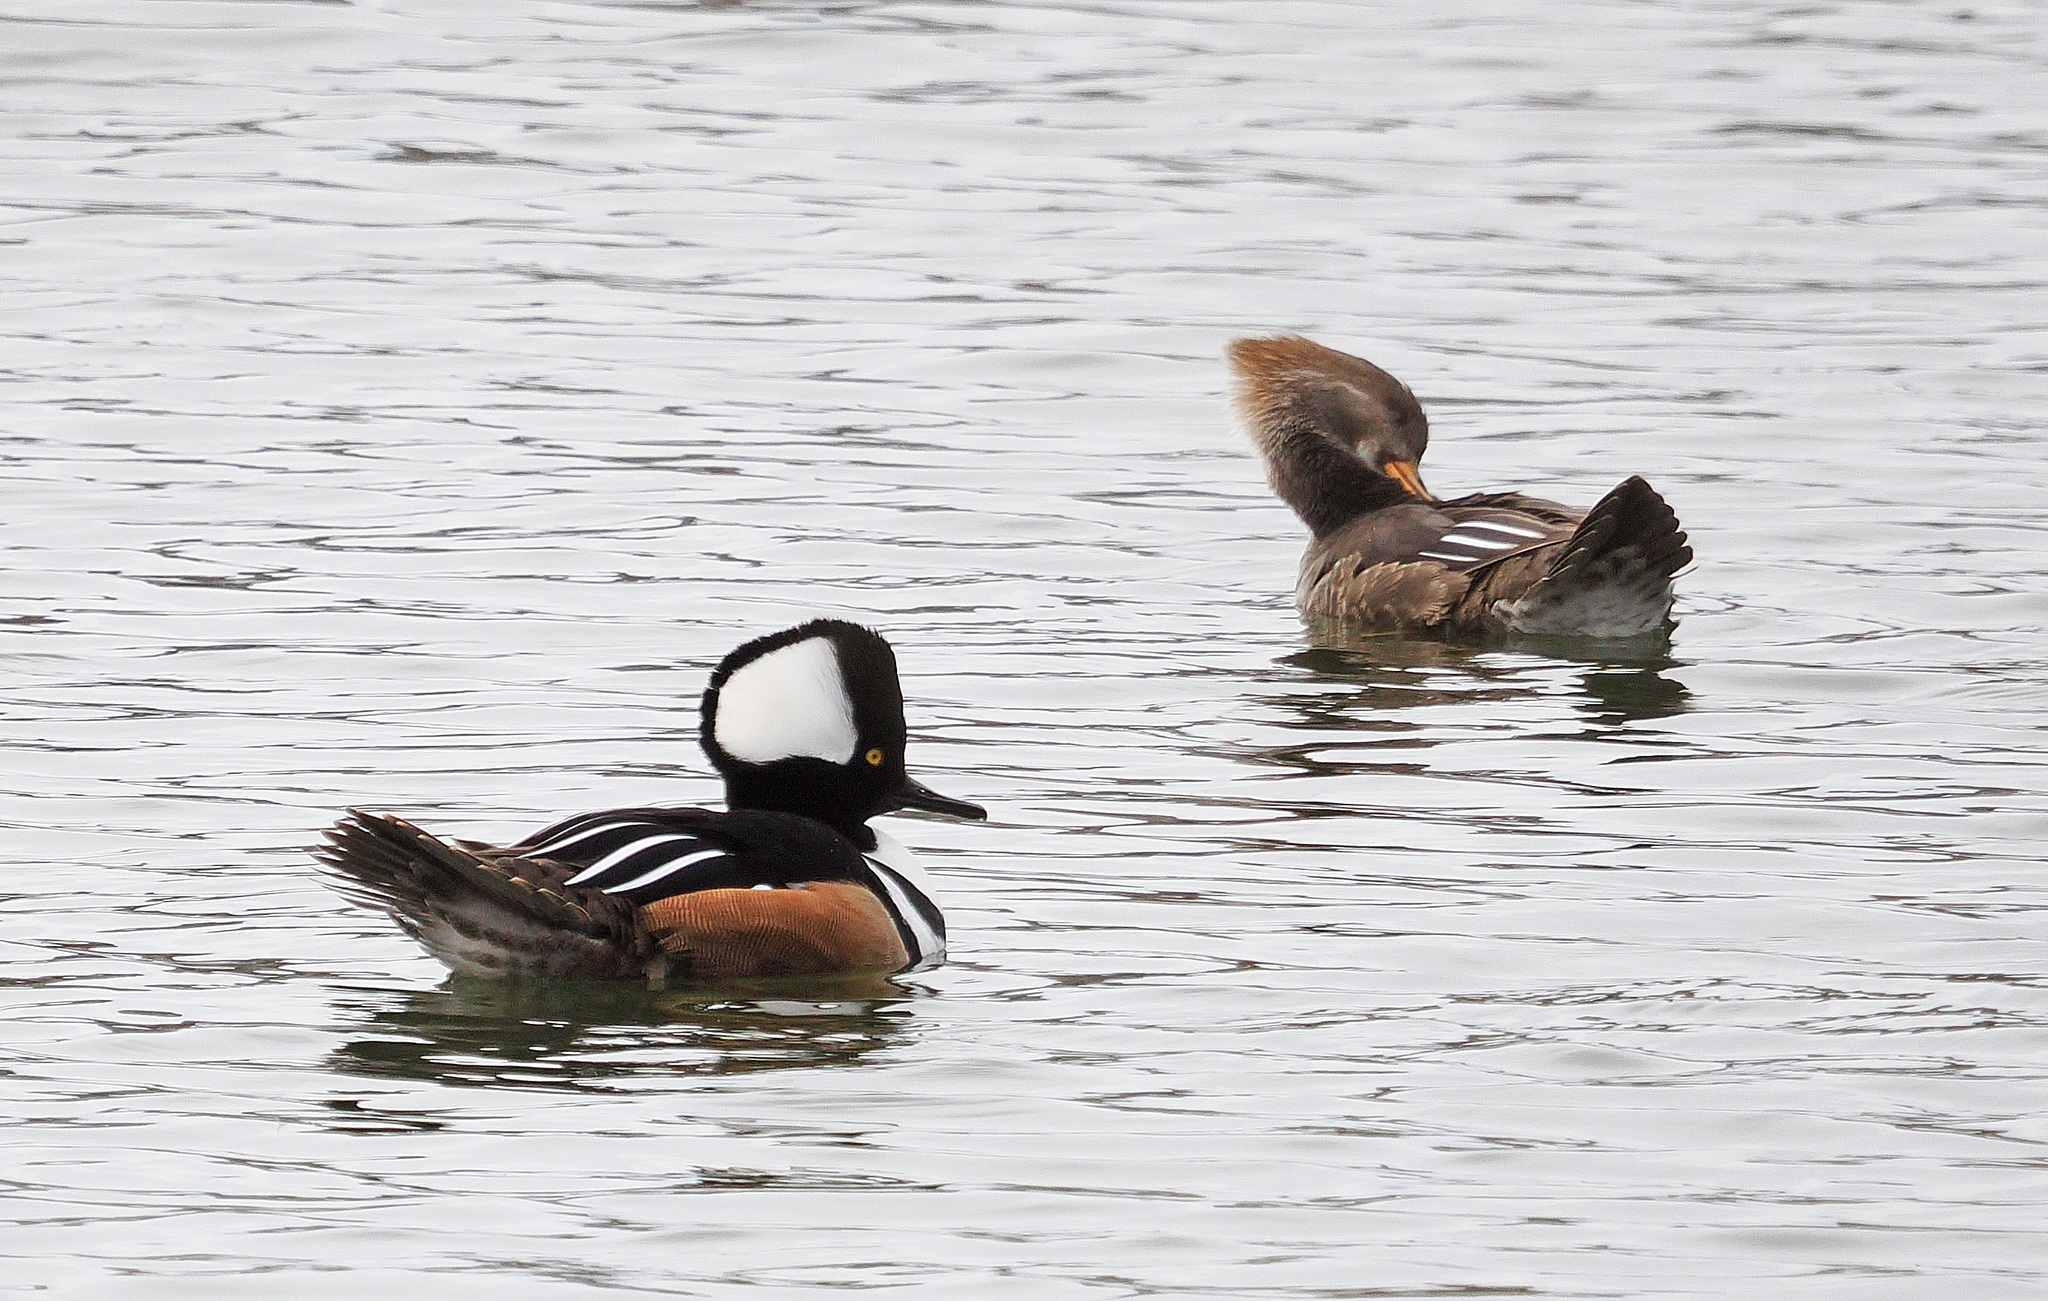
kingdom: Animalia
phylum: Chordata
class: Aves
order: Anseriformes
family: Anatidae
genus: Lophodytes
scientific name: Lophodytes cucullatus
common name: Hooded merganser
